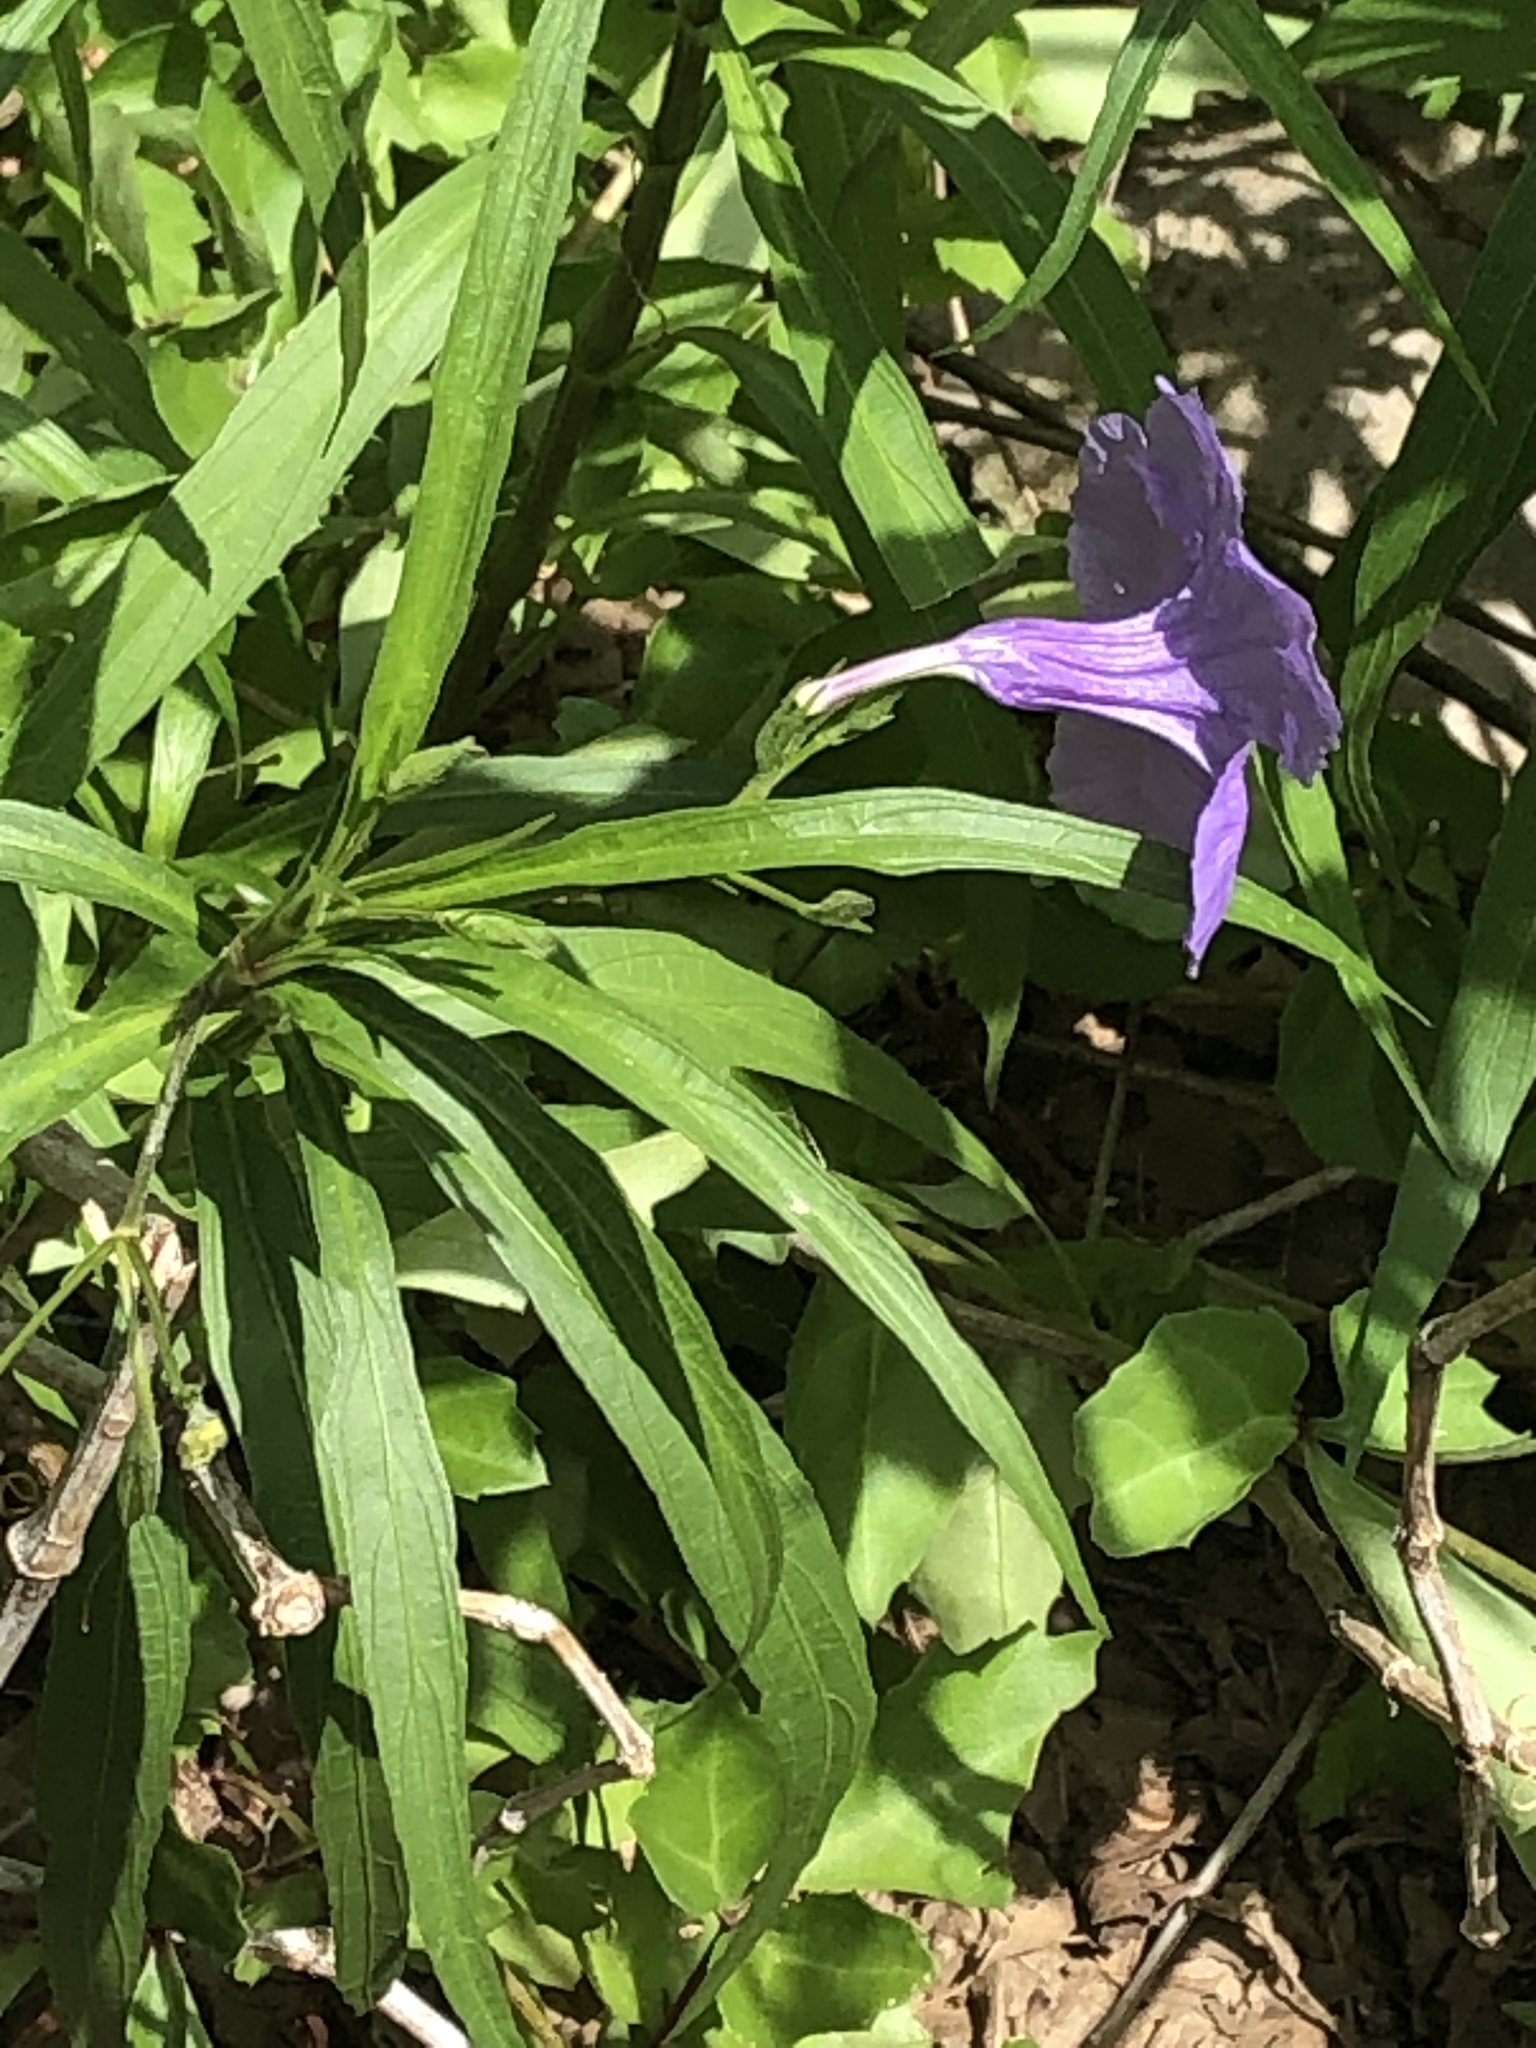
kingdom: Plantae
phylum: Tracheophyta
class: Magnoliopsida
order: Lamiales
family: Acanthaceae
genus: Ruellia
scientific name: Ruellia simplex
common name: Softseed wild petunia
